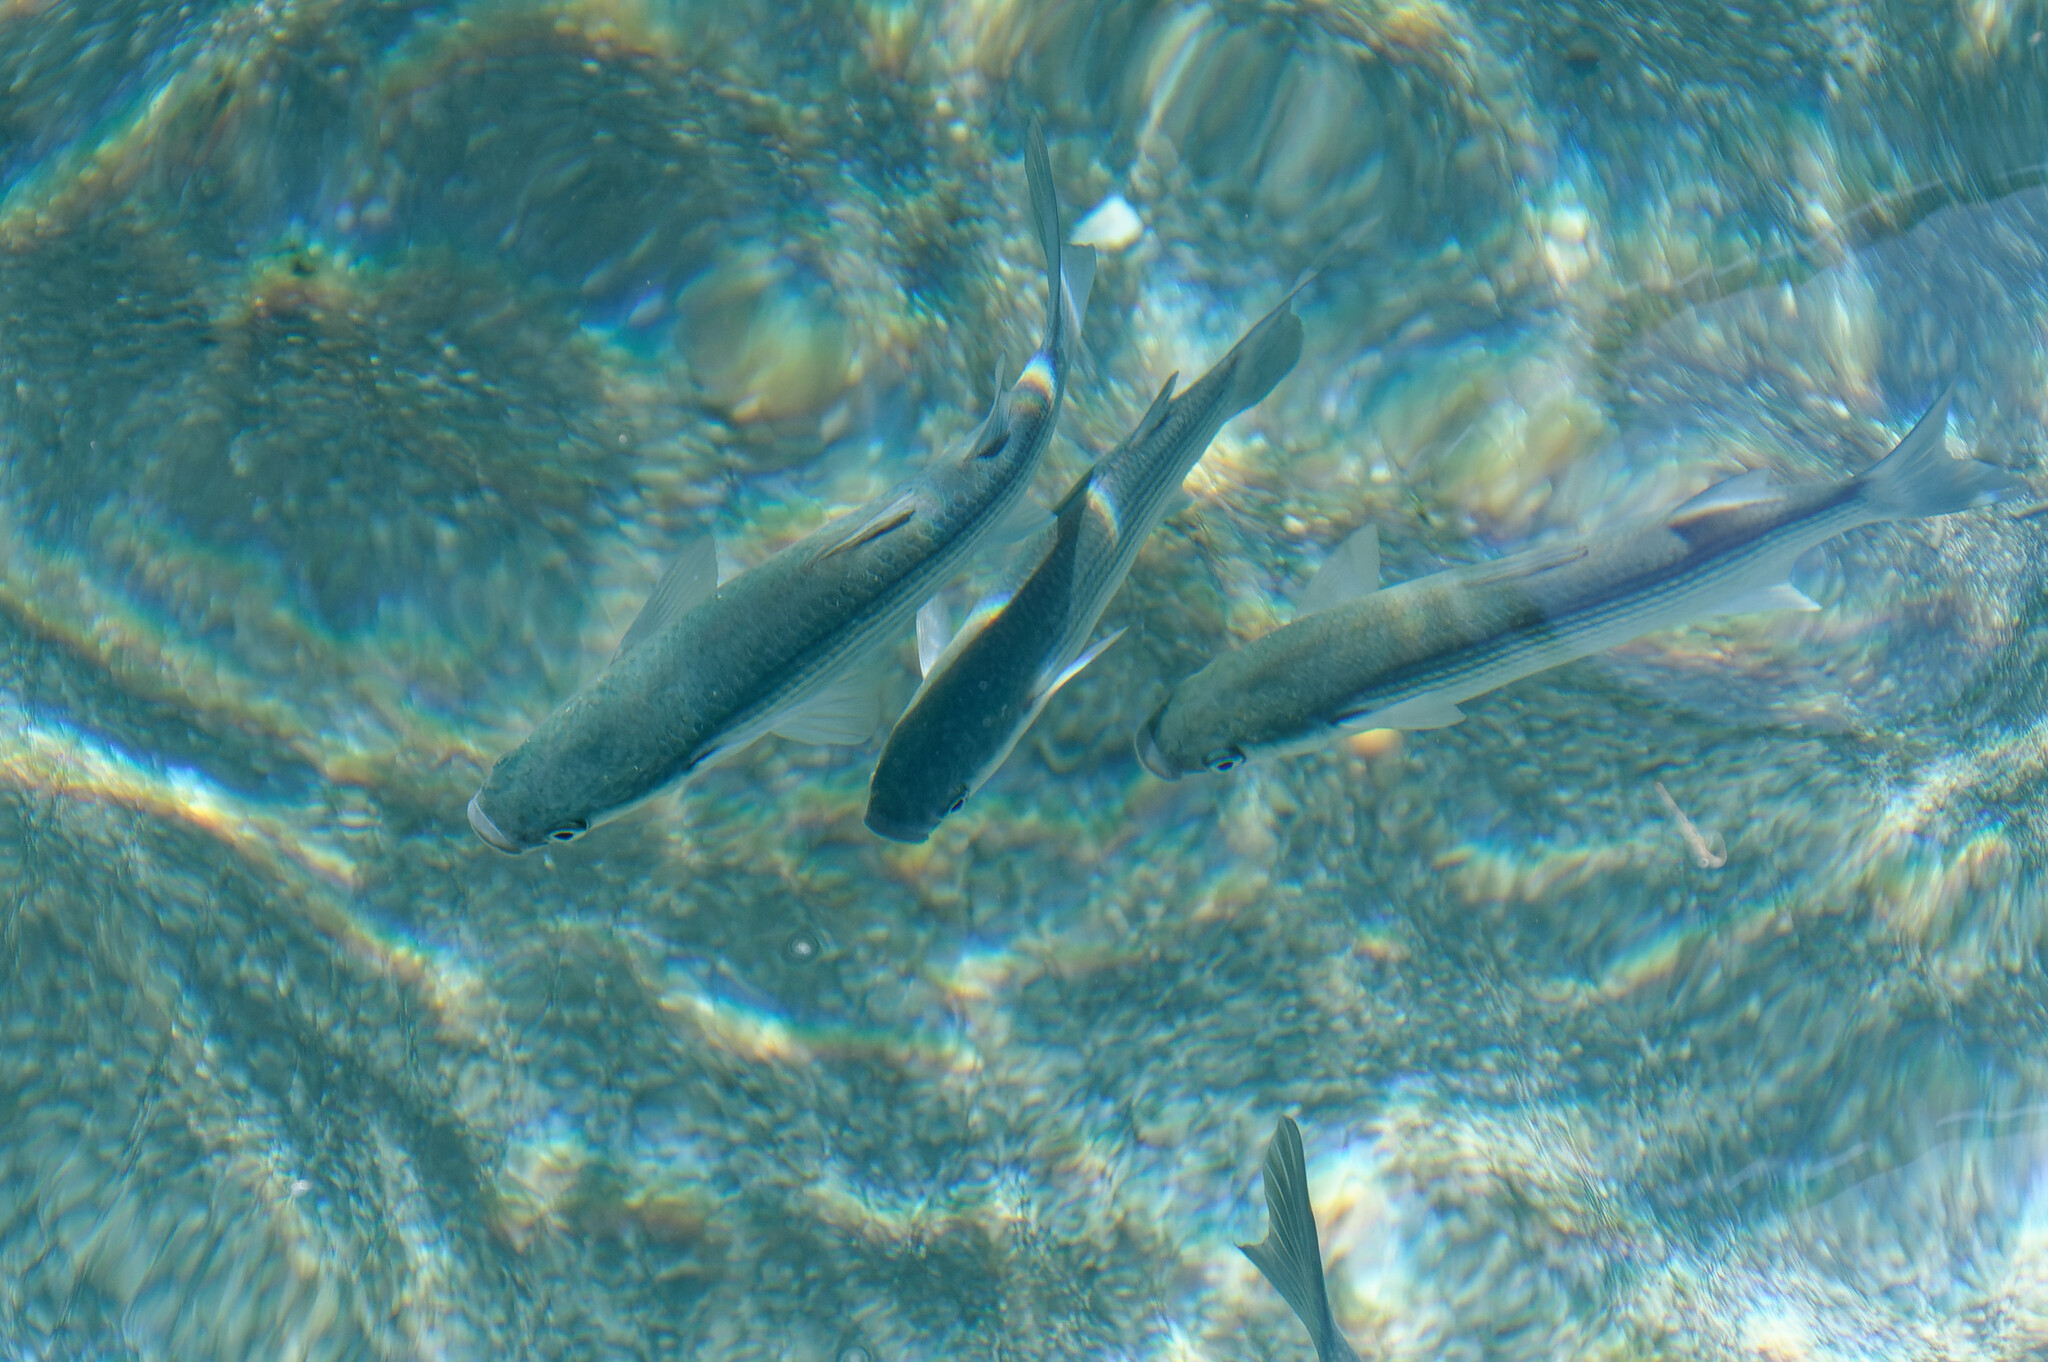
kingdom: Animalia
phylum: Chordata
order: Mugiliformes
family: Mugilidae
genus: Chelon
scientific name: Chelon labrosus
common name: Thick-lipped mullet
